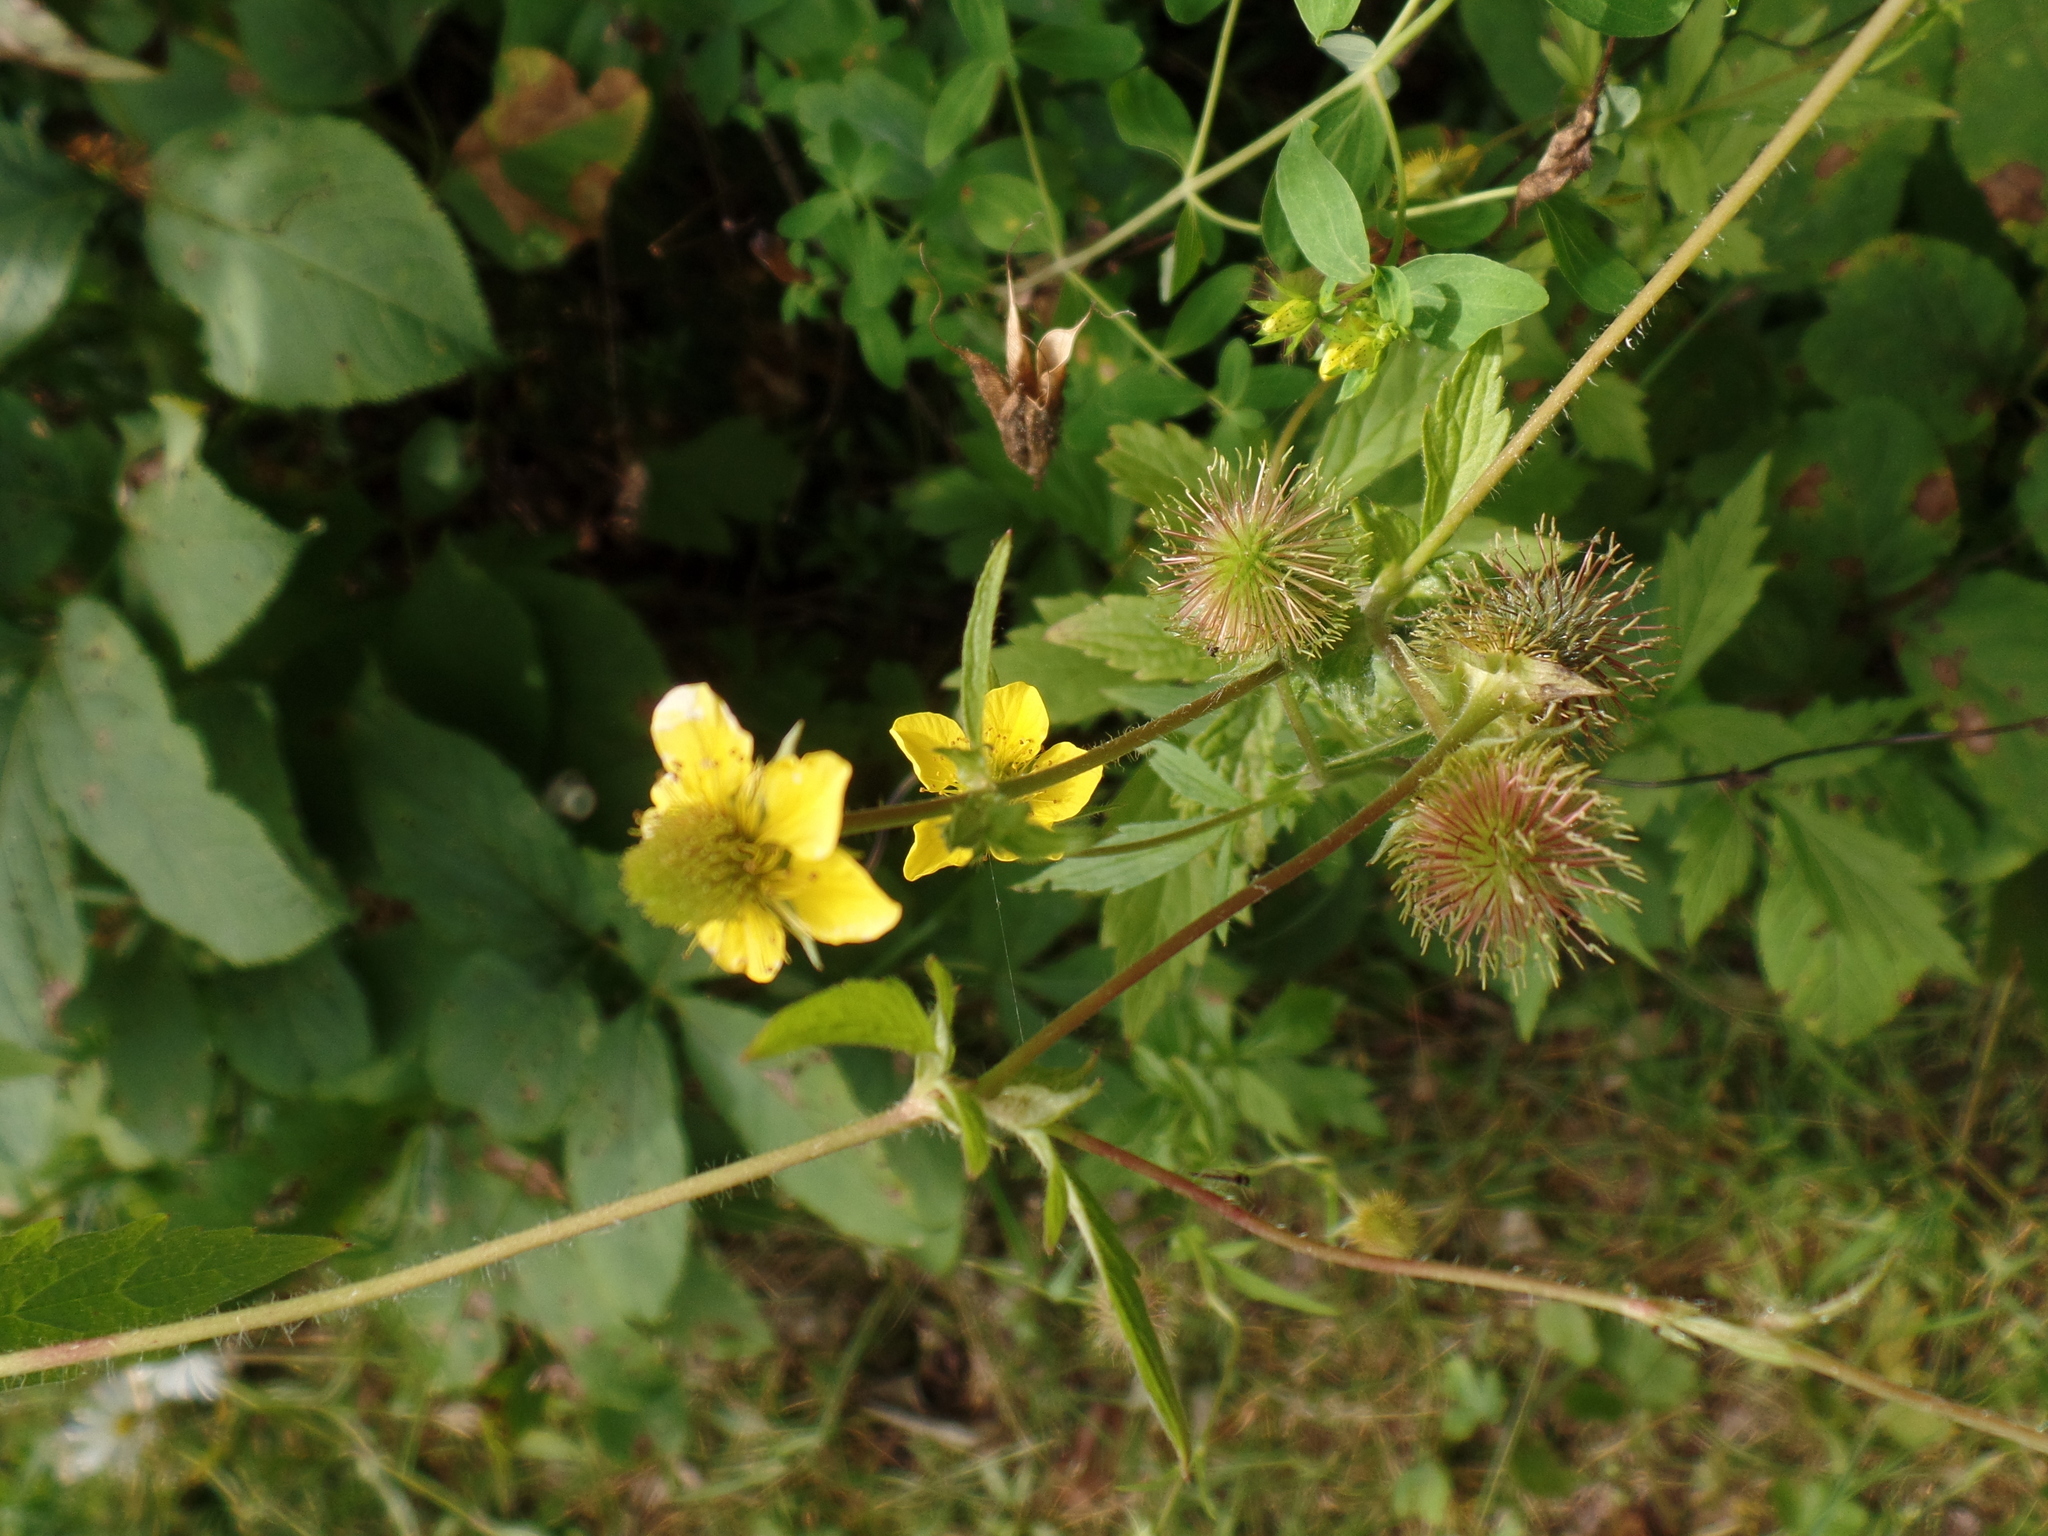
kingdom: Plantae
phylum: Tracheophyta
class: Magnoliopsida
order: Rosales
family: Rosaceae
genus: Geum
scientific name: Geum aleppicum
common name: Yellow avens
